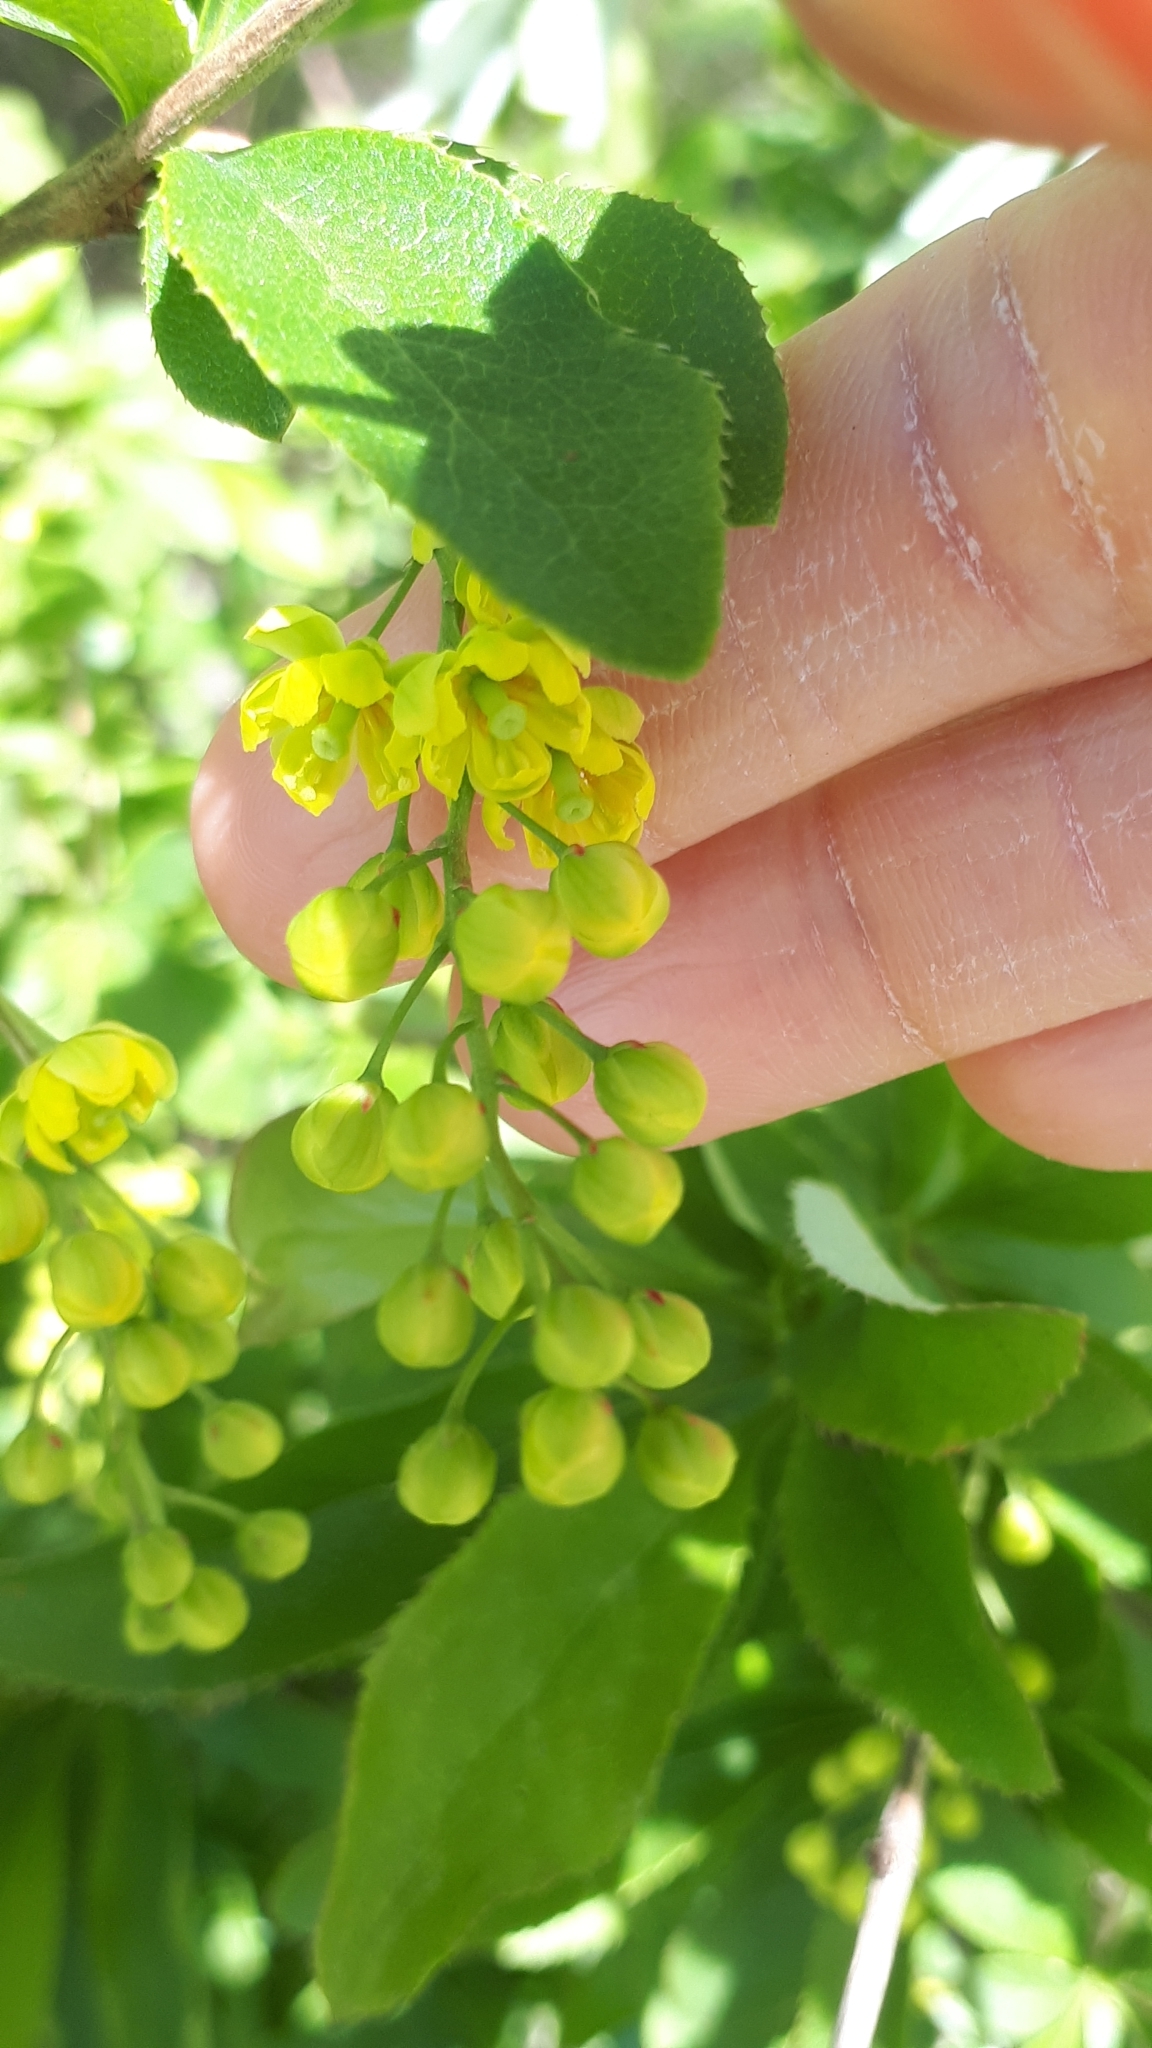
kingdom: Plantae
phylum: Tracheophyta
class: Magnoliopsida
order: Ranunculales
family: Berberidaceae
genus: Berberis
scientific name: Berberis vulgaris
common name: Barberry
